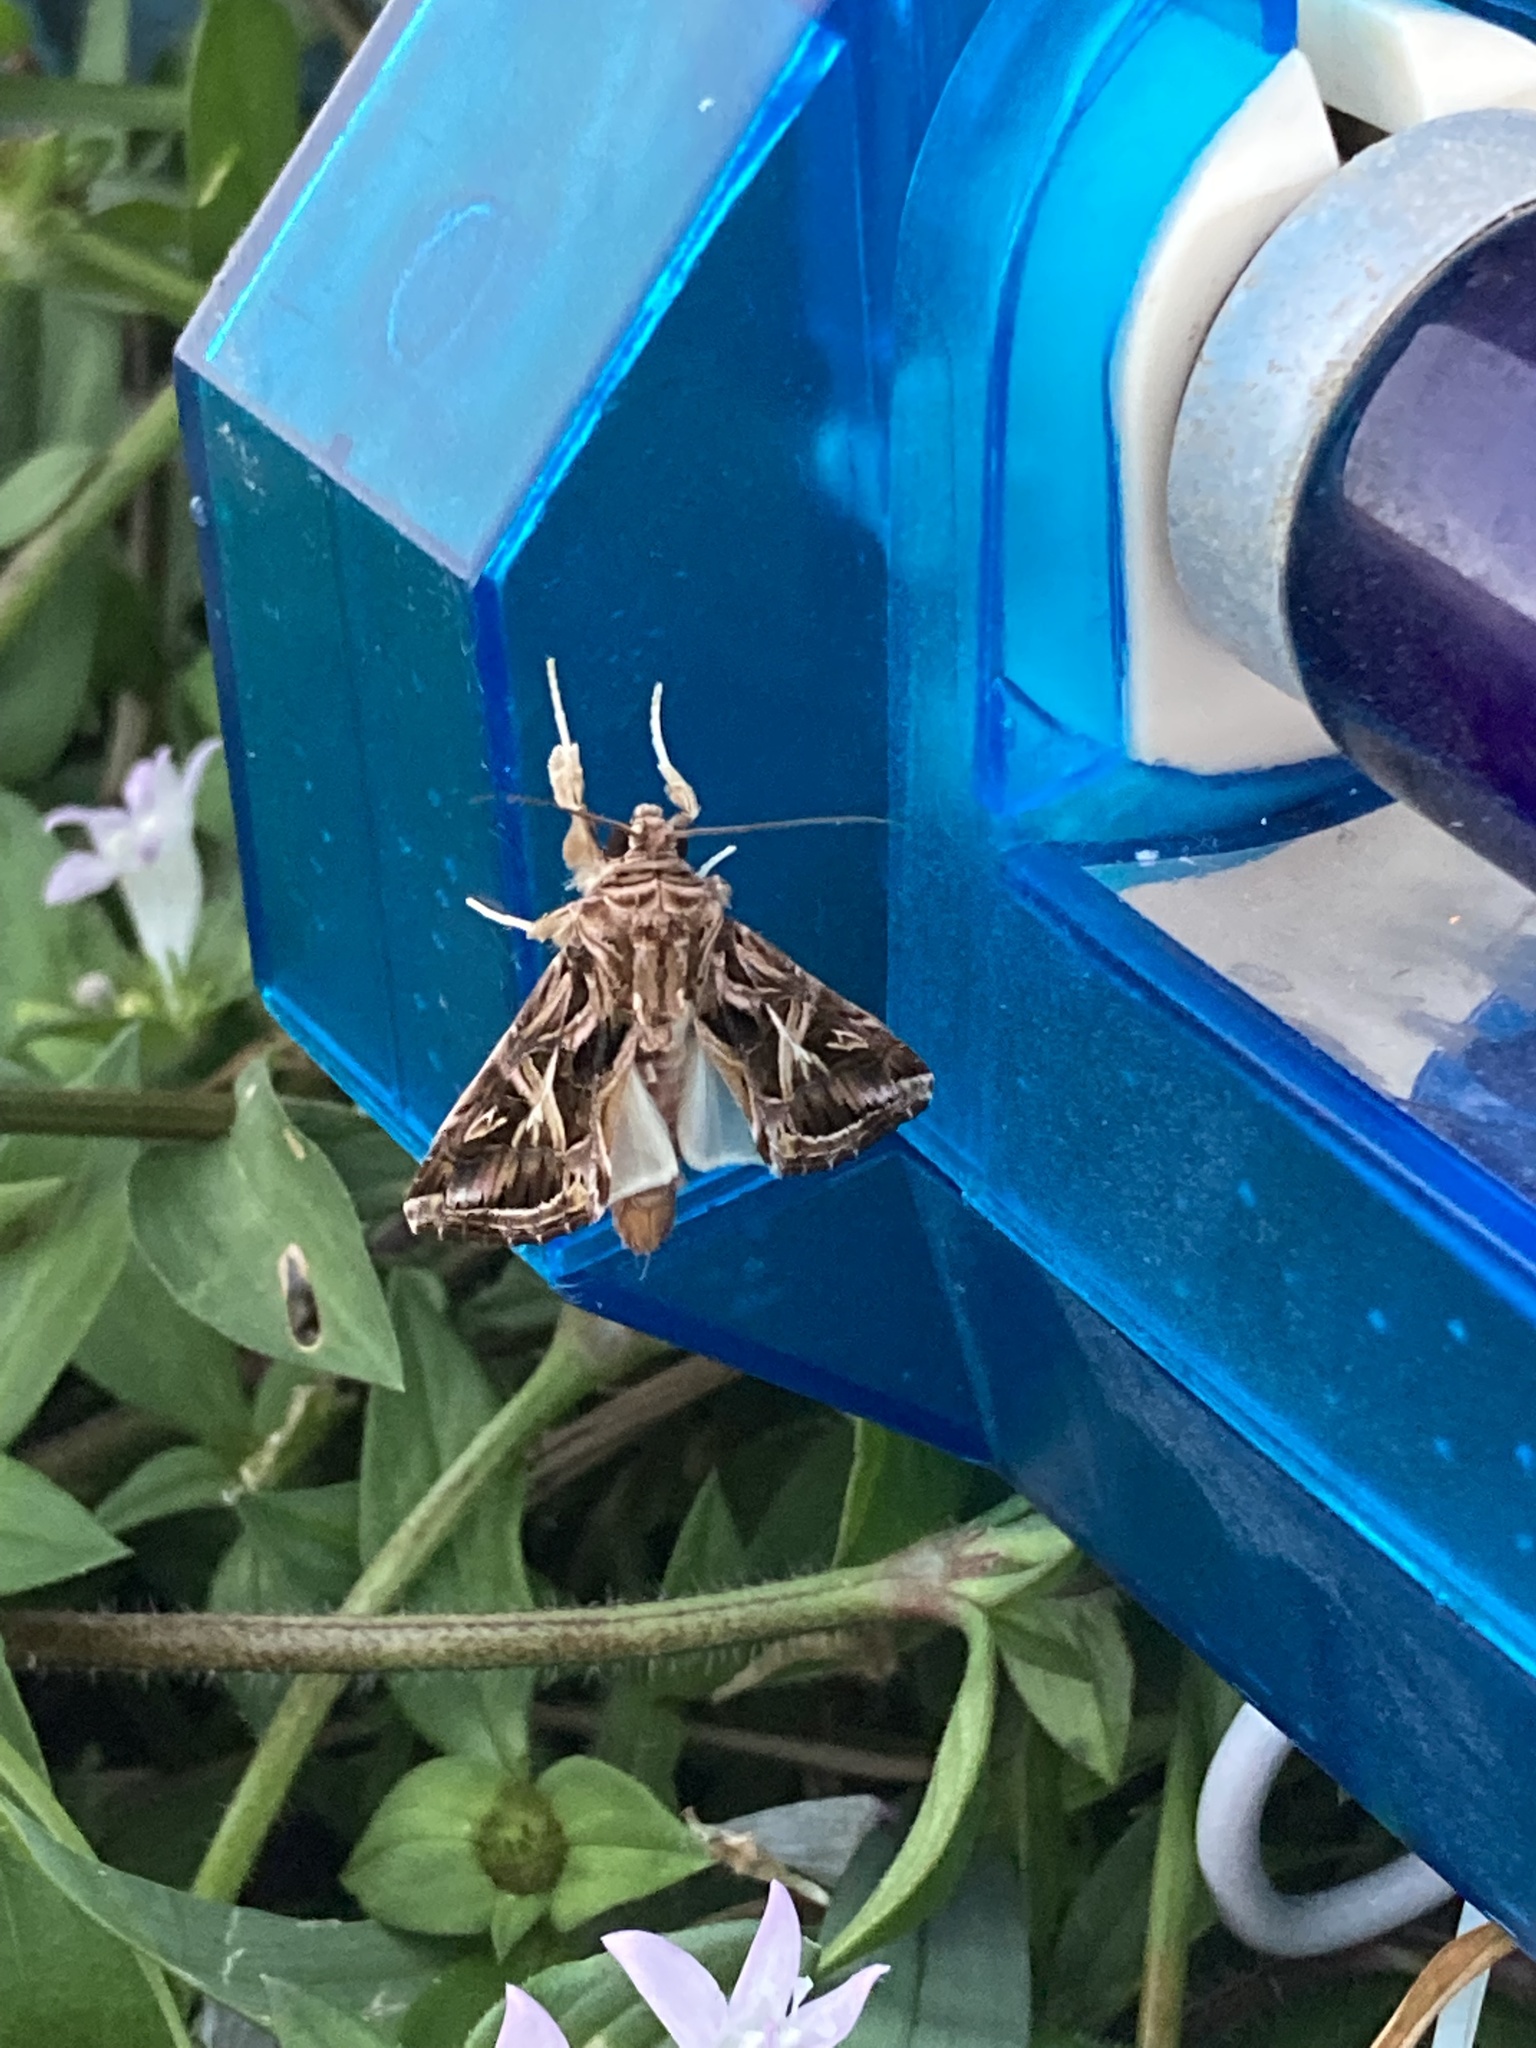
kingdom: Animalia
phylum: Arthropoda
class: Insecta
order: Lepidoptera
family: Noctuidae
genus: Spodoptera
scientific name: Spodoptera pulchella
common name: Caribbean armyworm moth
